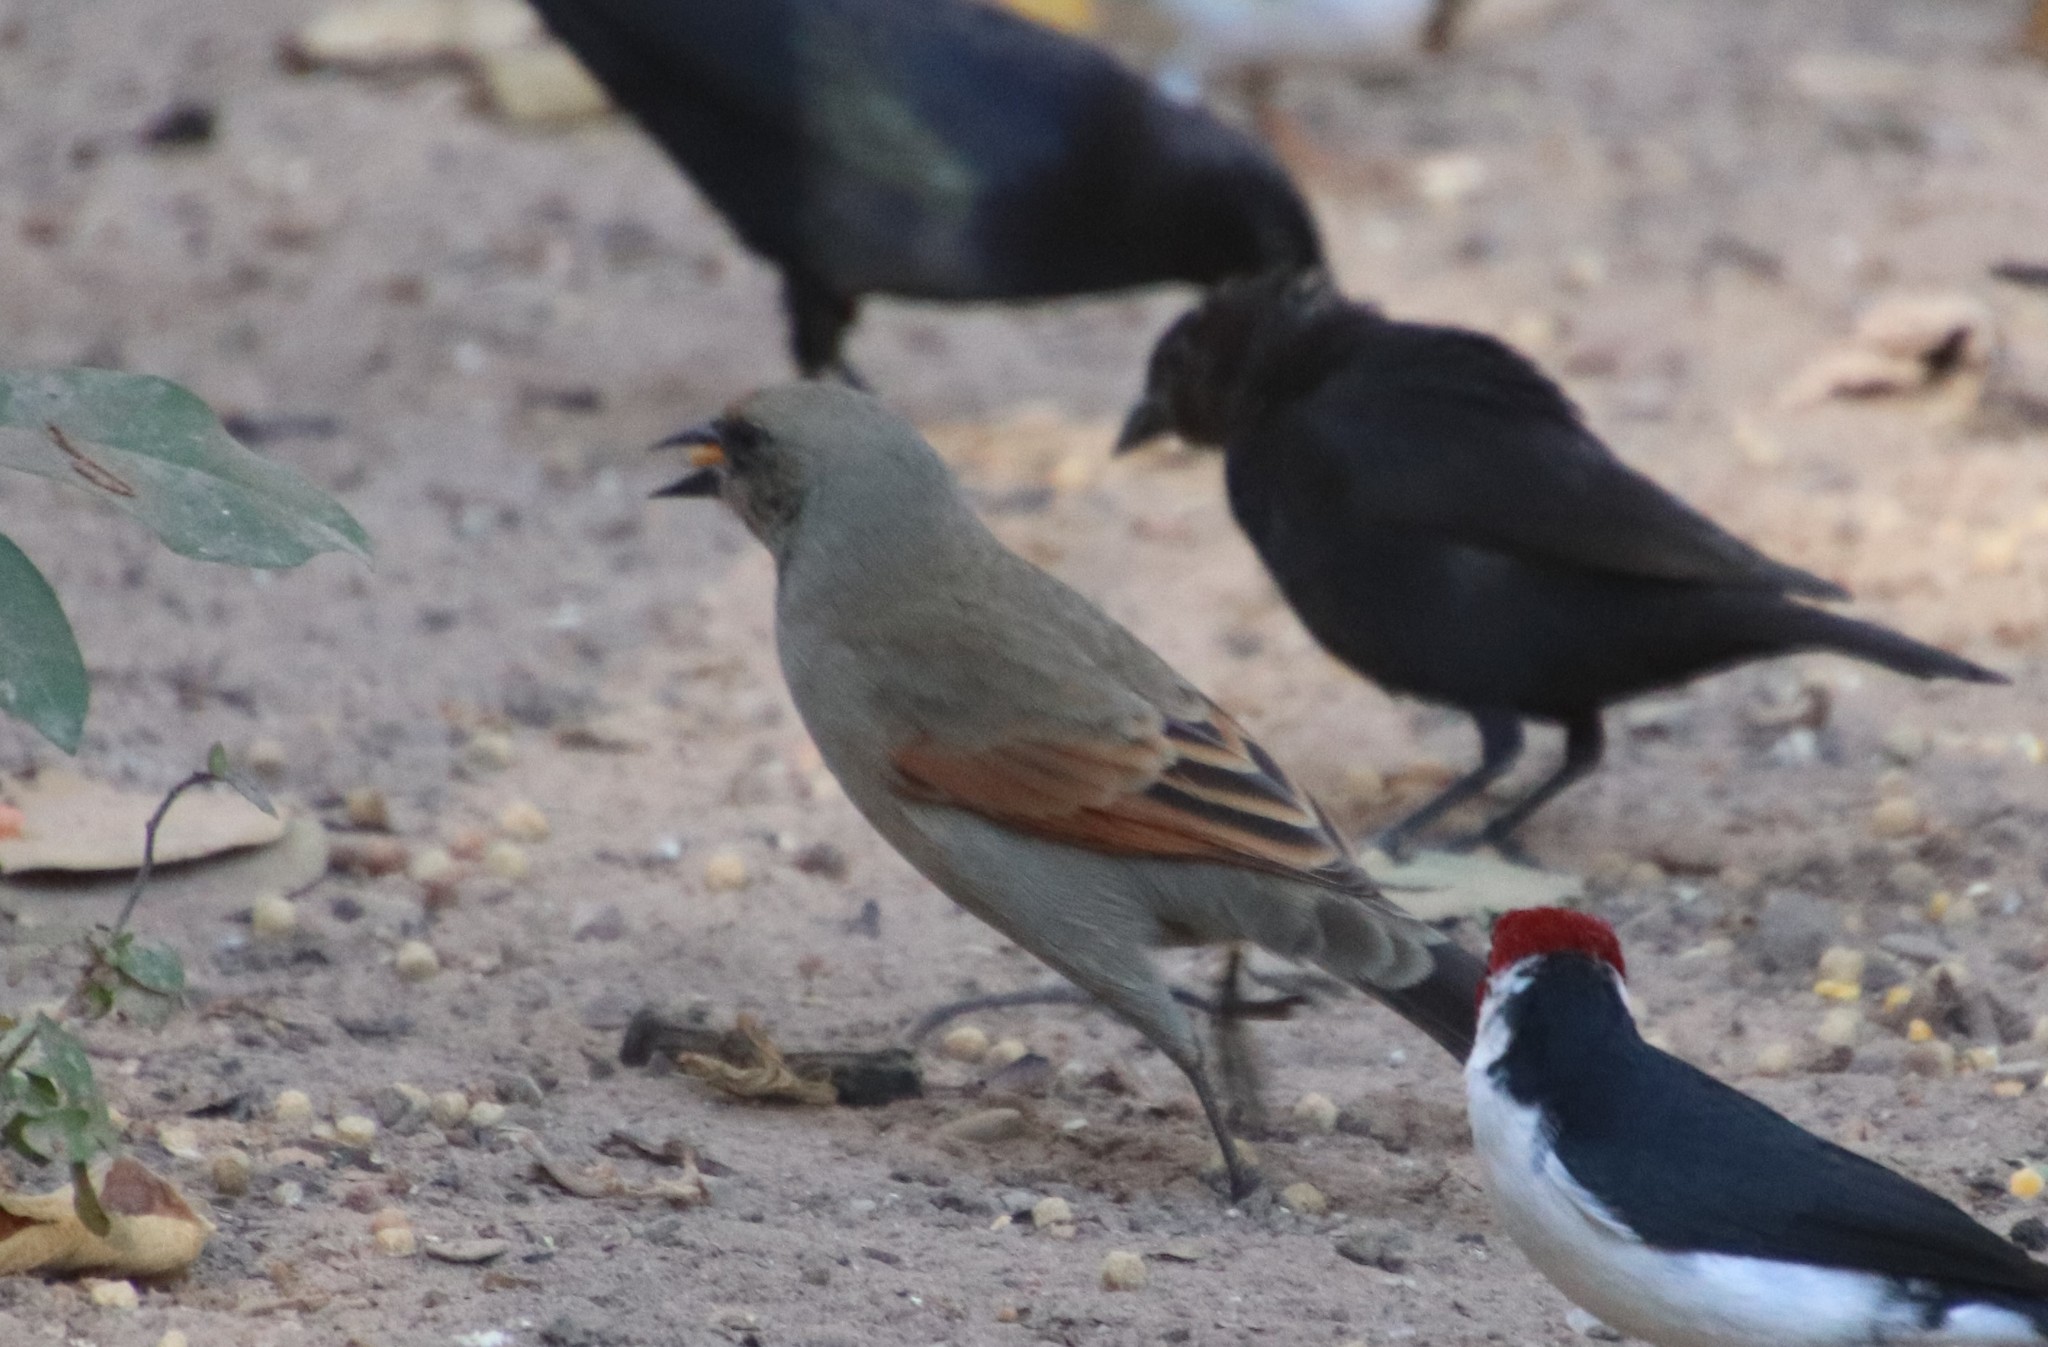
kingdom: Animalia
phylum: Chordata
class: Aves
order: Passeriformes
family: Icteridae
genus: Agelaioides
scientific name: Agelaioides badius
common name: Baywing
